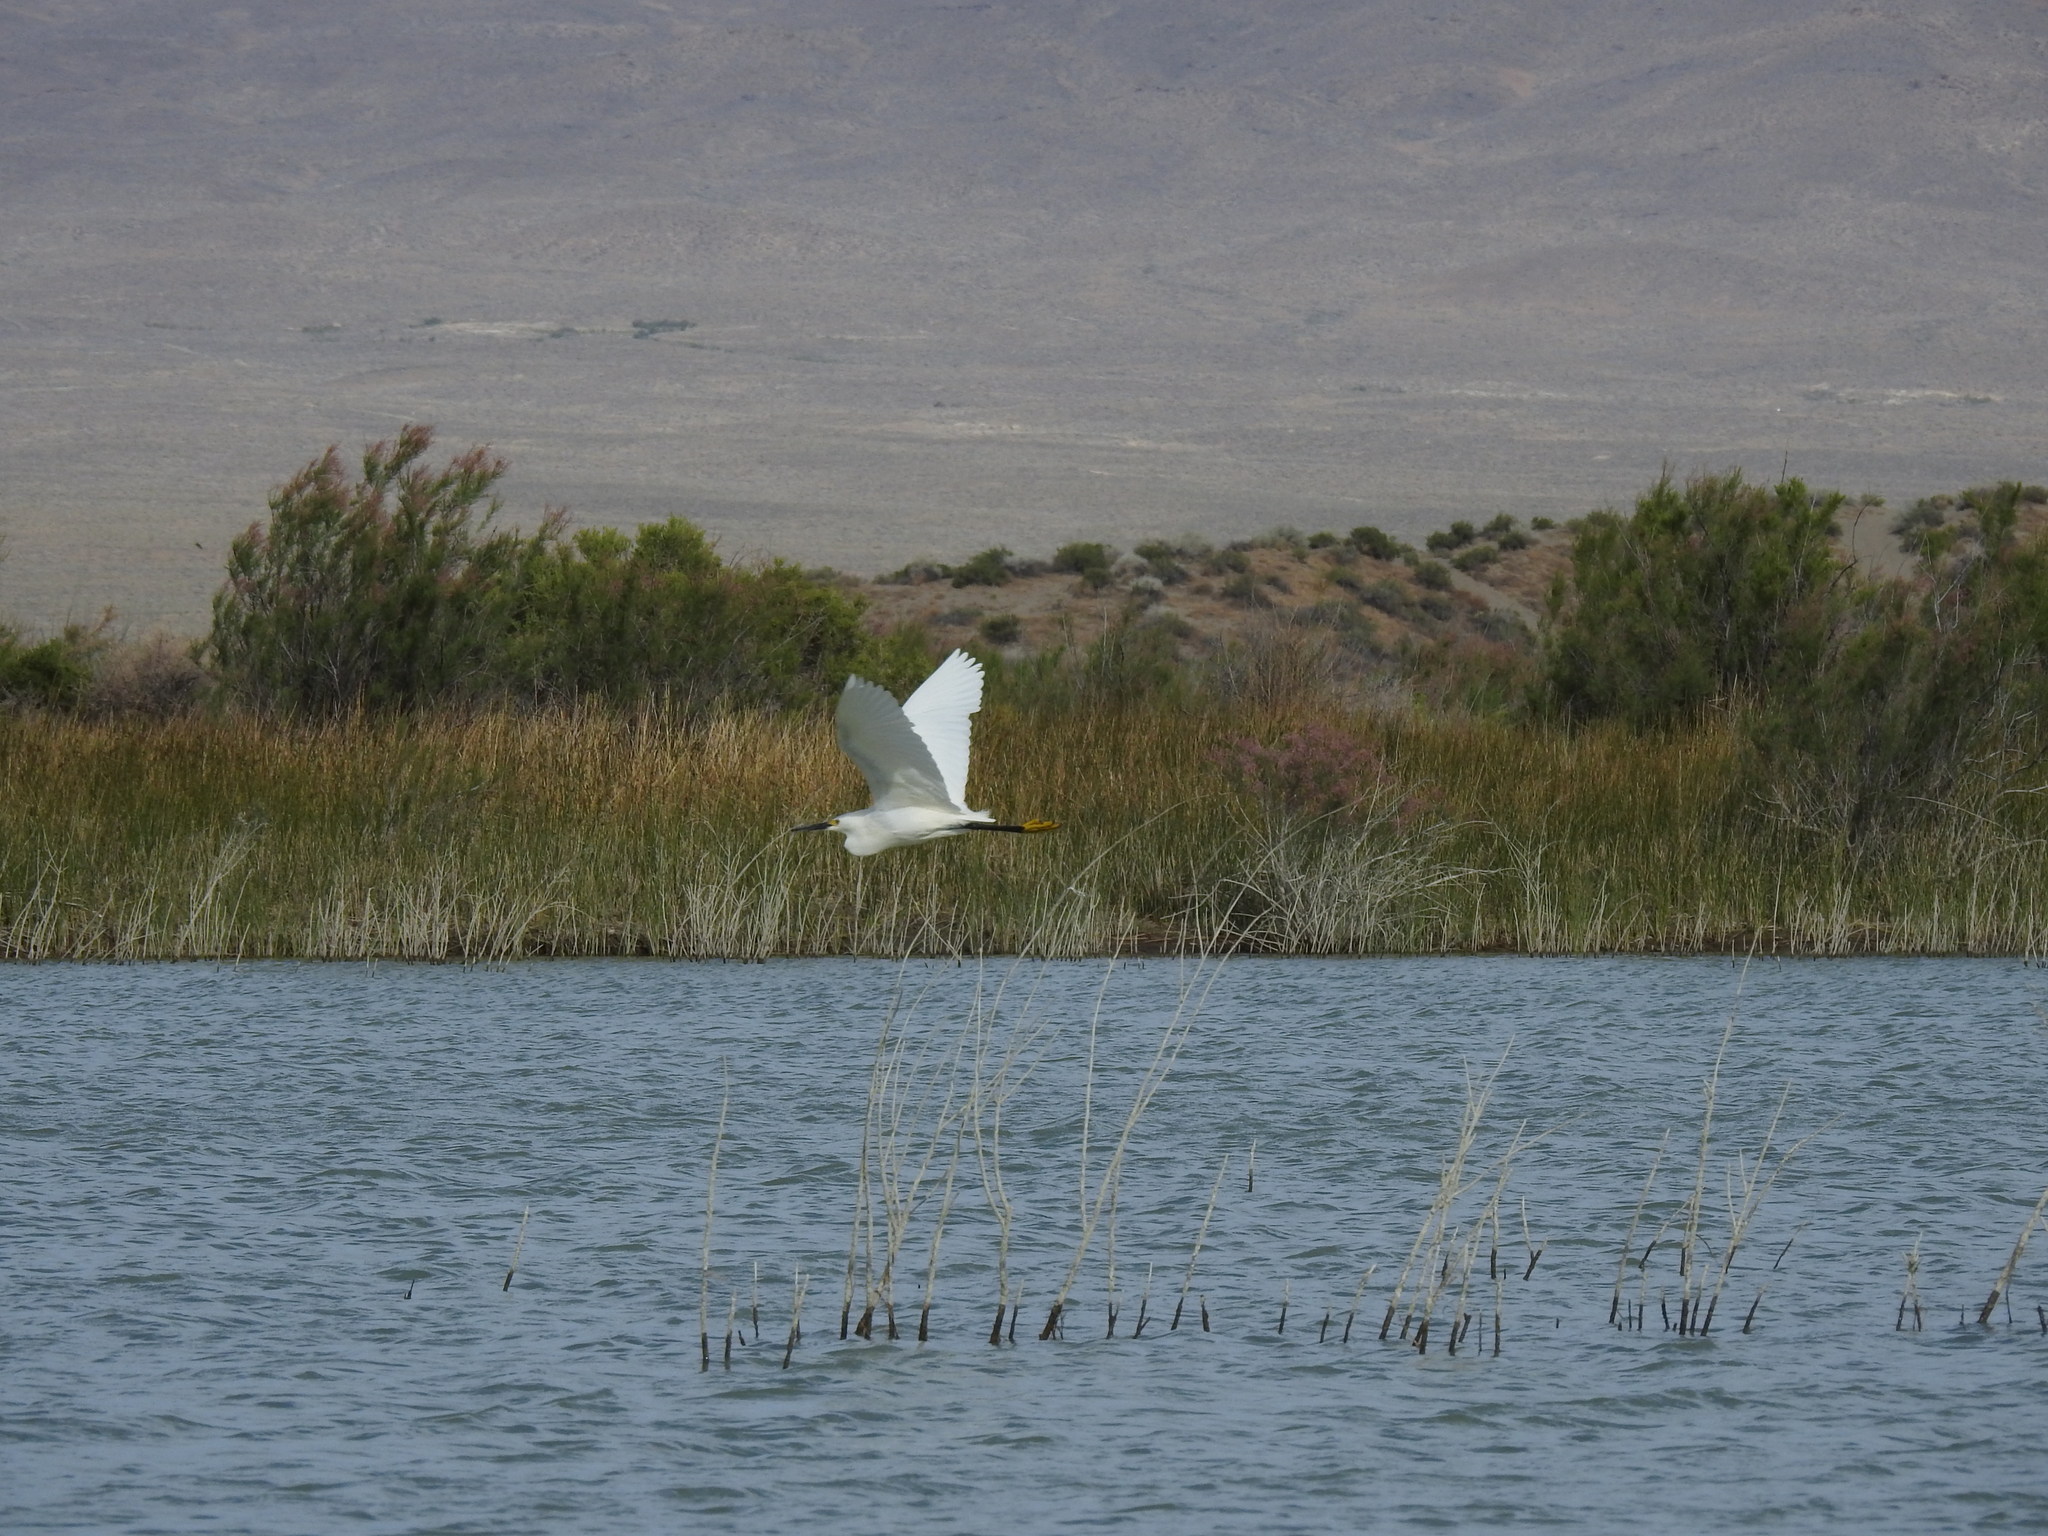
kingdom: Animalia
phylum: Chordata
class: Aves
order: Pelecaniformes
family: Ardeidae
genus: Egretta
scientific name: Egretta thula
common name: Snowy egret
